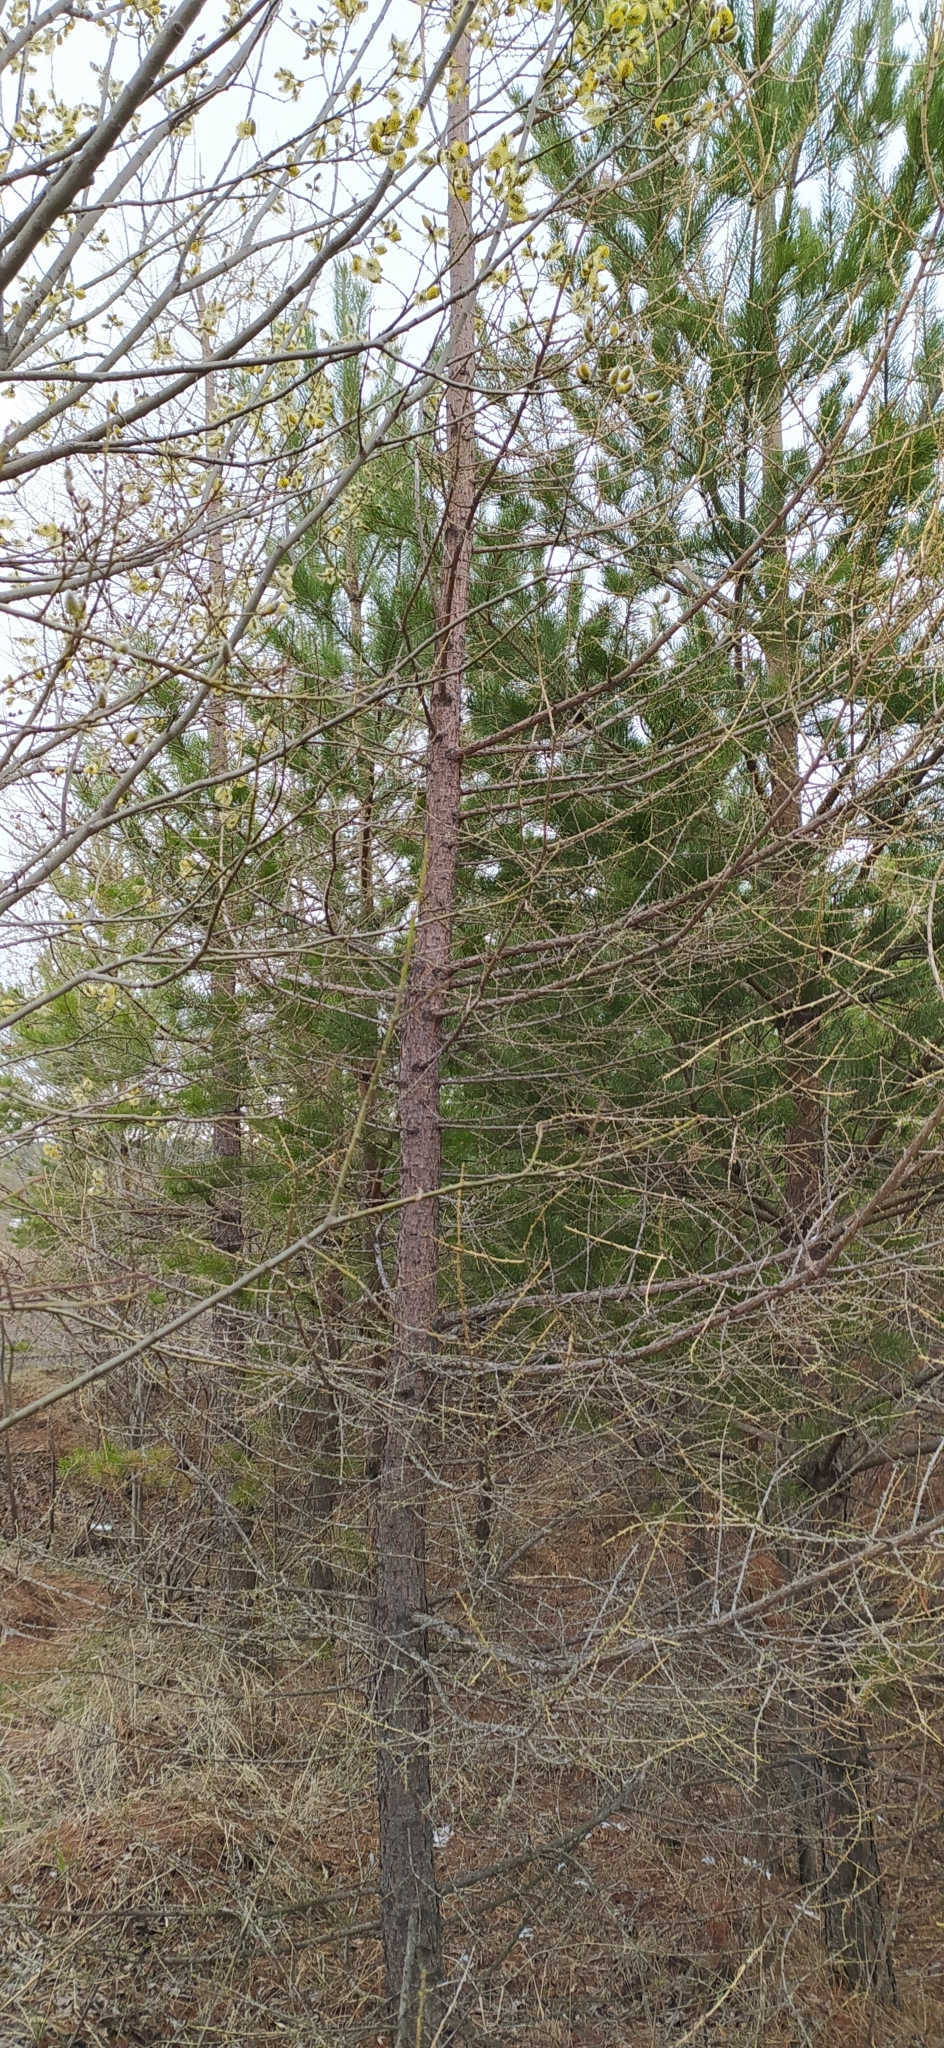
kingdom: Plantae
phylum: Tracheophyta
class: Pinopsida
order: Pinales
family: Pinaceae
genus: Larix
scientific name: Larix sibirica
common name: Siberian larch
